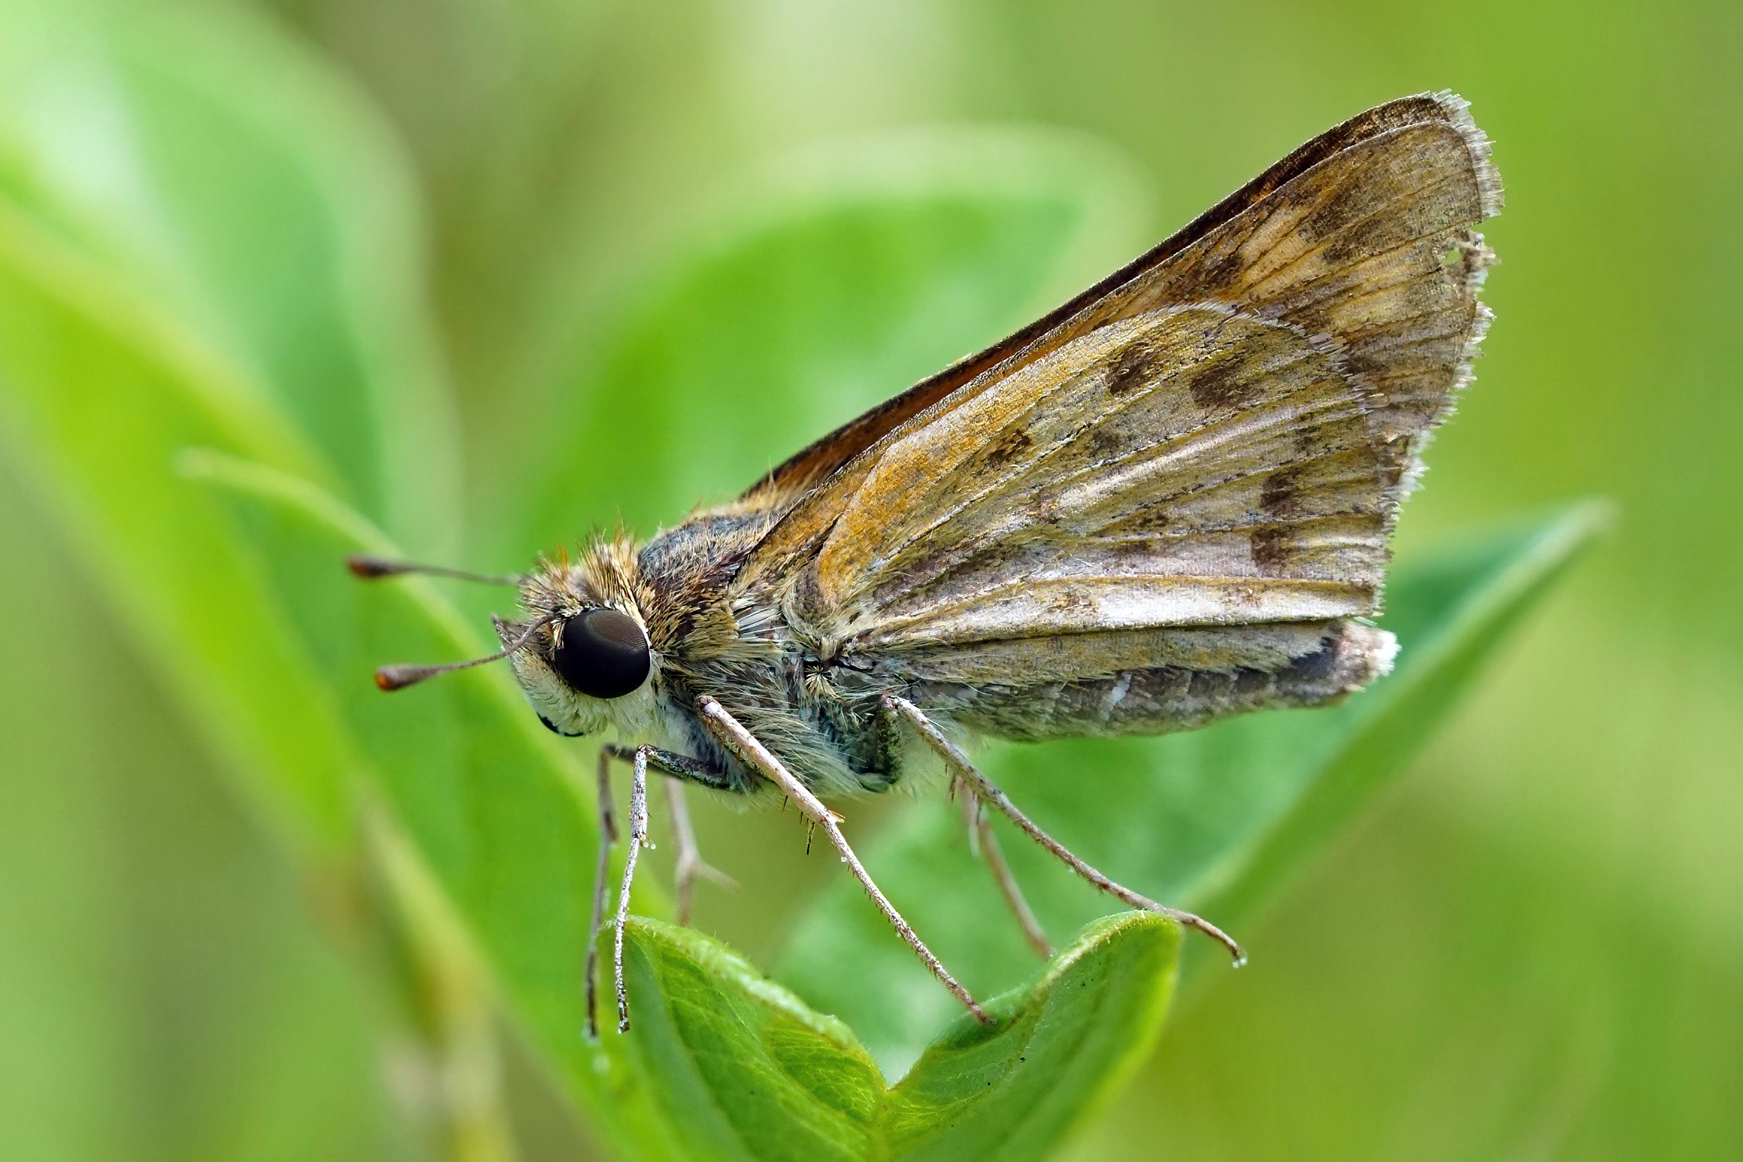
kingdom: Animalia
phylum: Arthropoda
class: Insecta
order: Lepidoptera
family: Hesperiidae
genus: Hylephila
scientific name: Hylephila phyleus
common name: Fiery skipper
